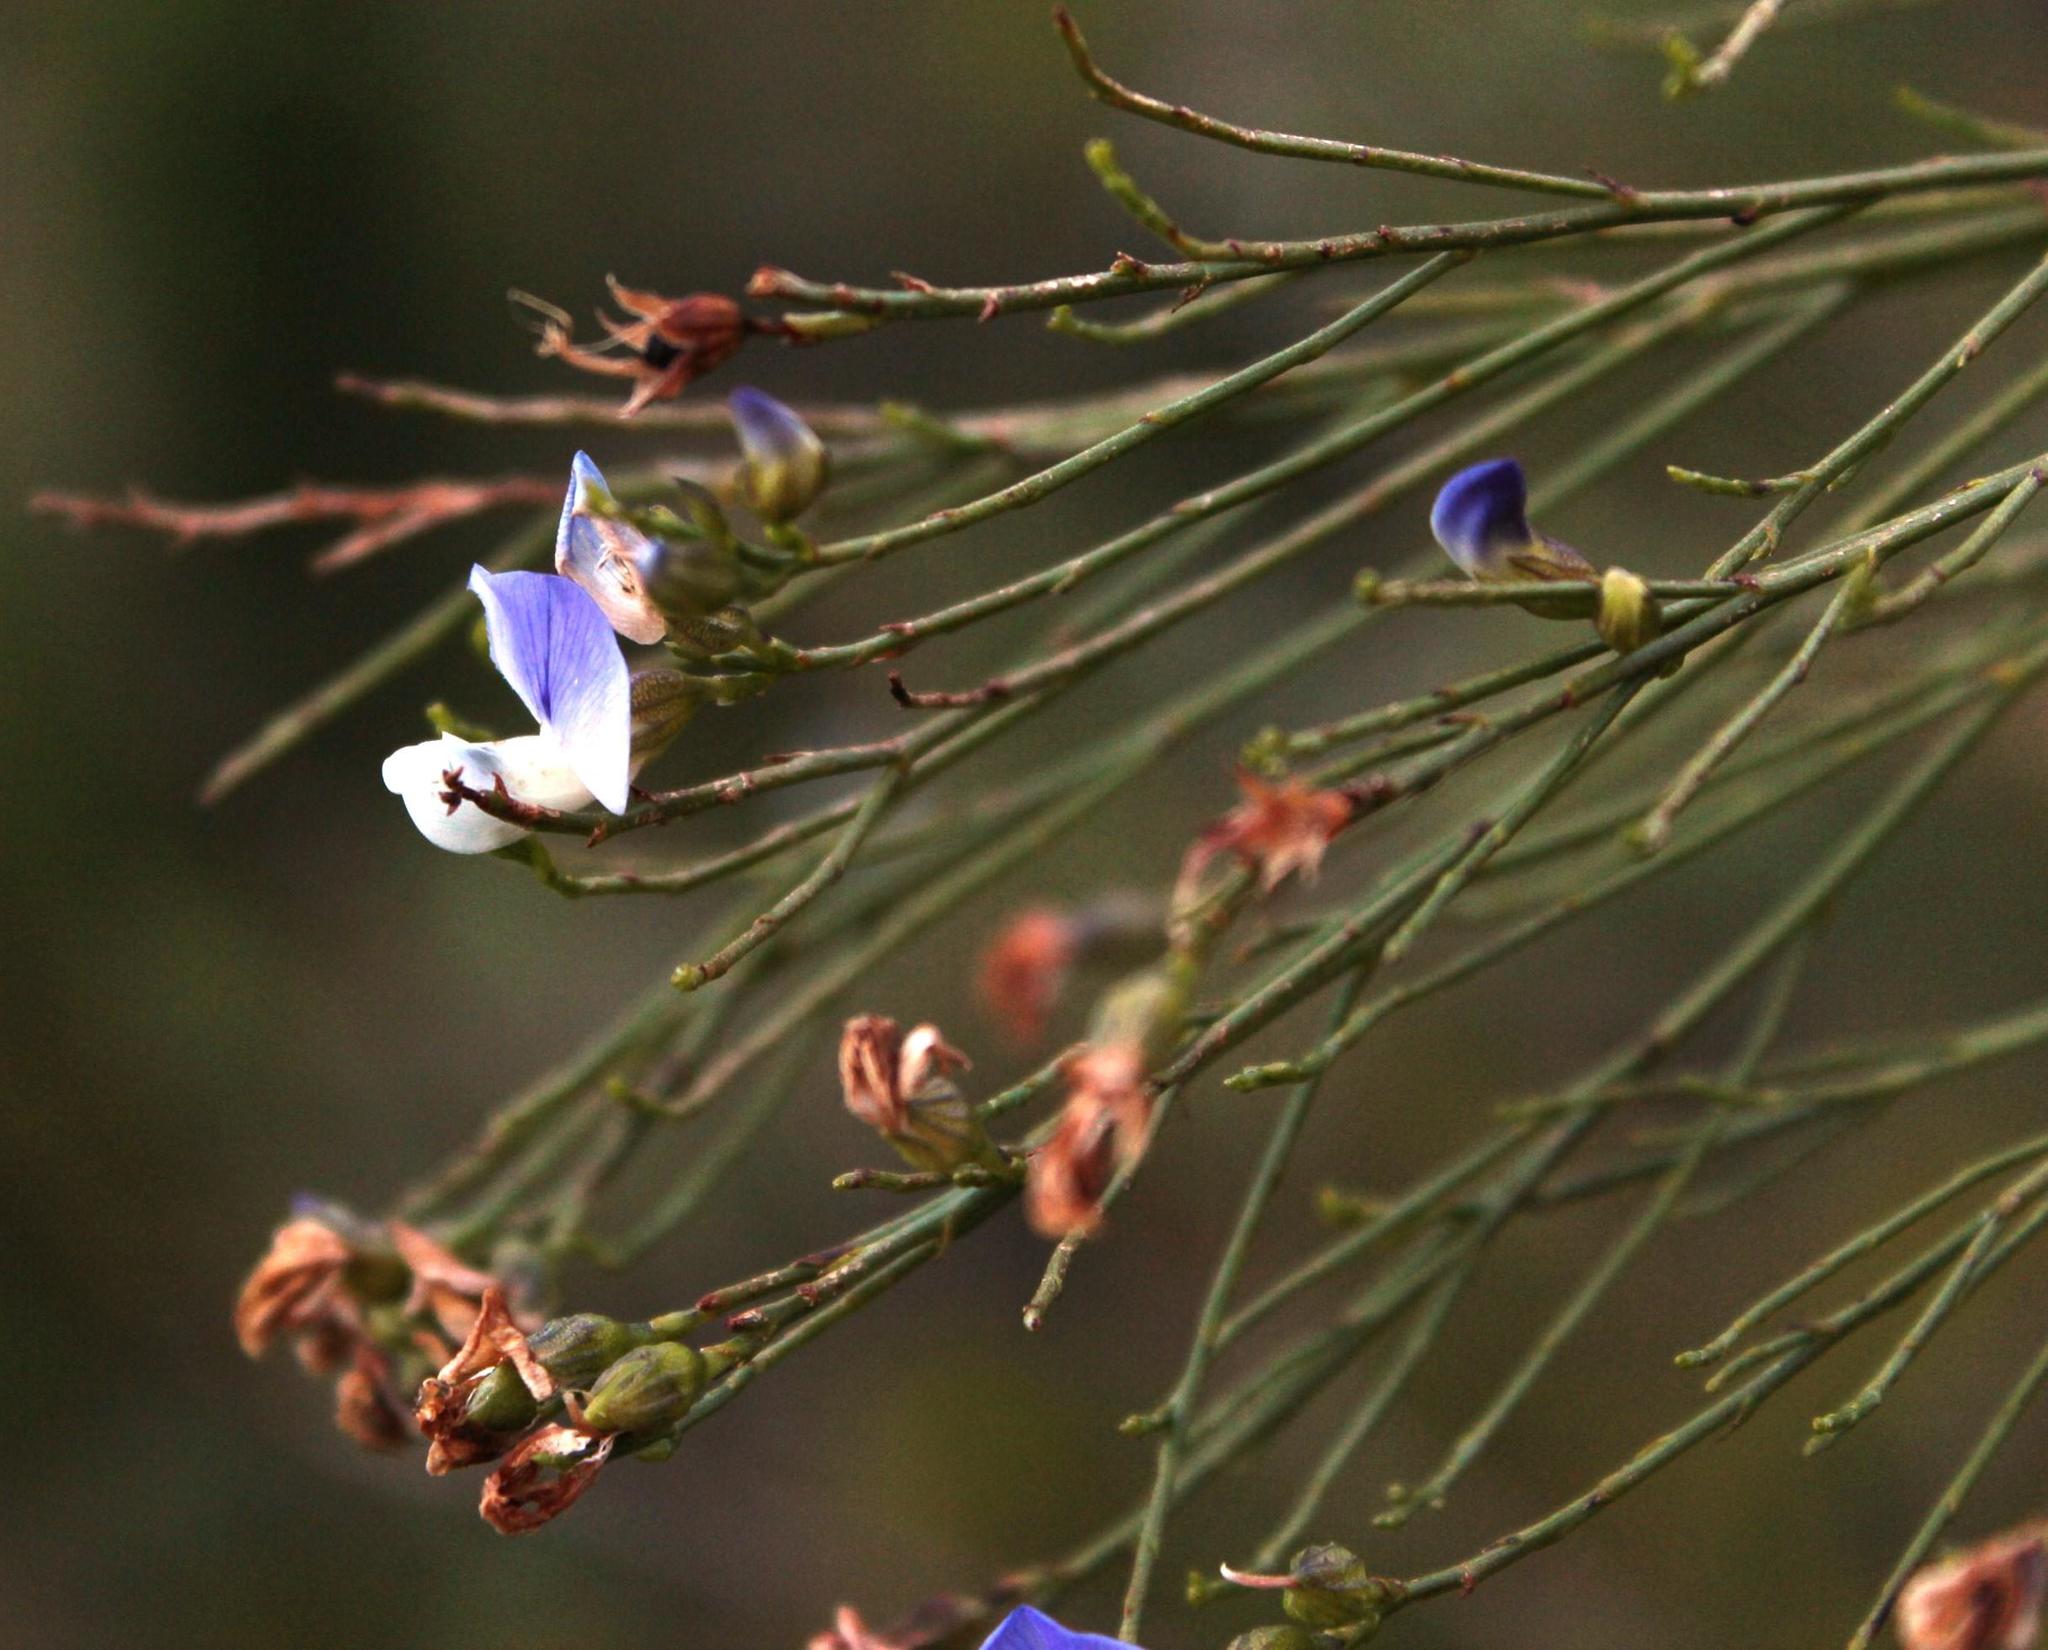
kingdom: Plantae
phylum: Tracheophyta
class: Magnoliopsida
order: Fabales
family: Fabaceae
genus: Psoralea
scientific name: Psoralea usitata
